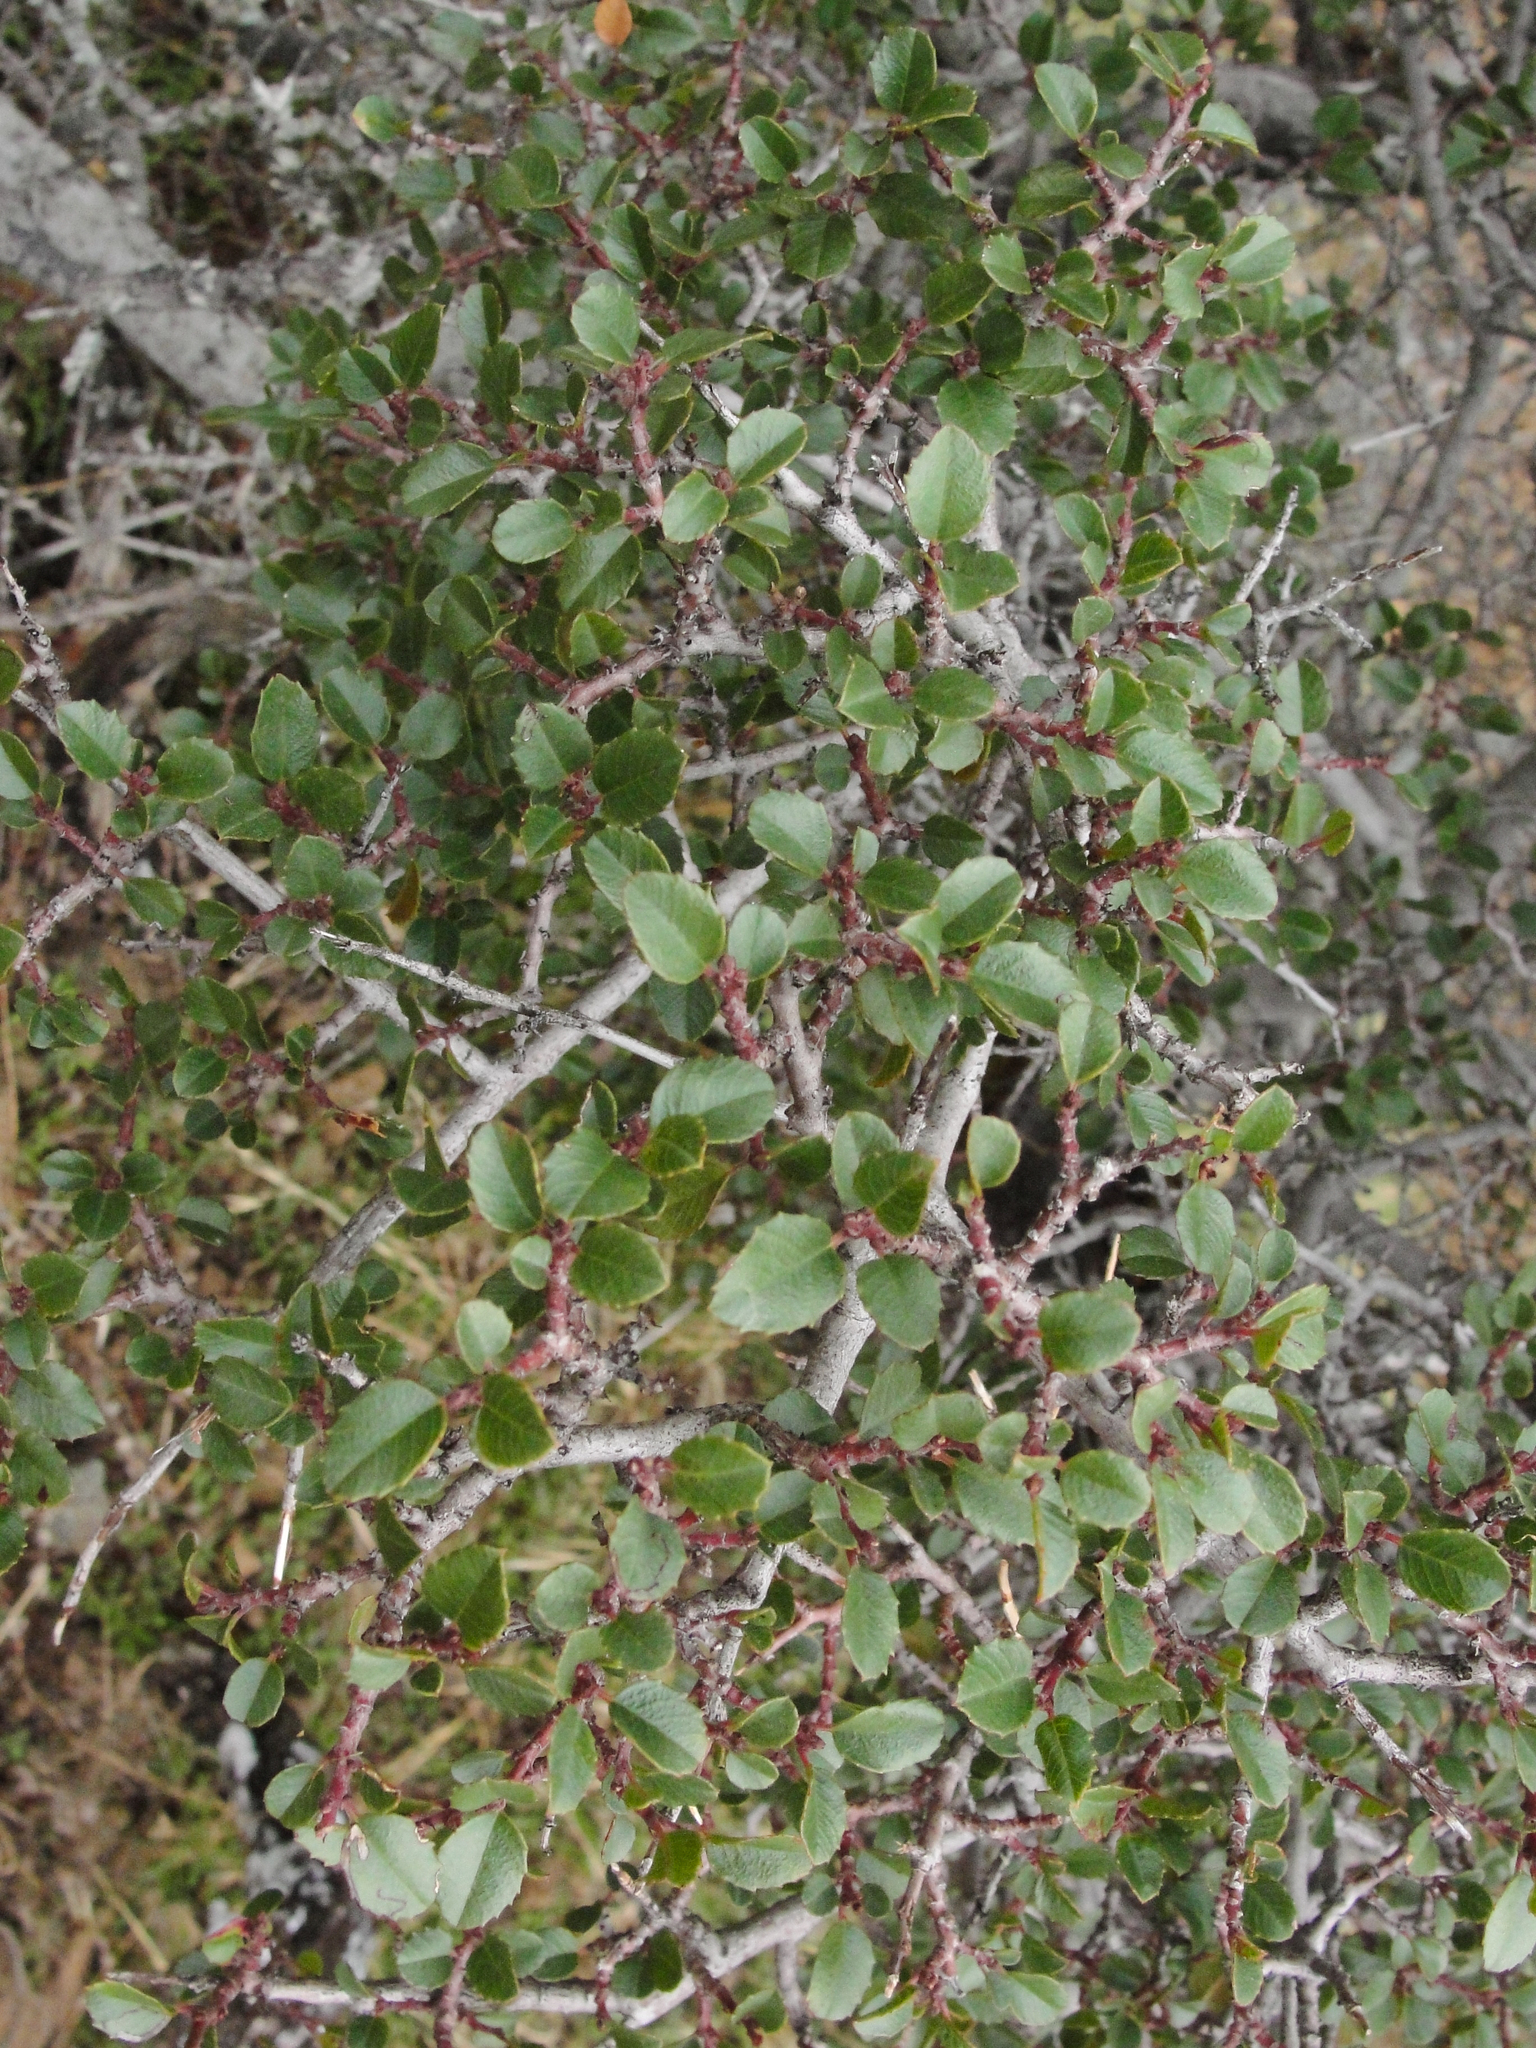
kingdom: Plantae
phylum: Tracheophyta
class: Magnoliopsida
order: Rosales
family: Rhamnaceae
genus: Endotropis
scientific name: Endotropis crocea
